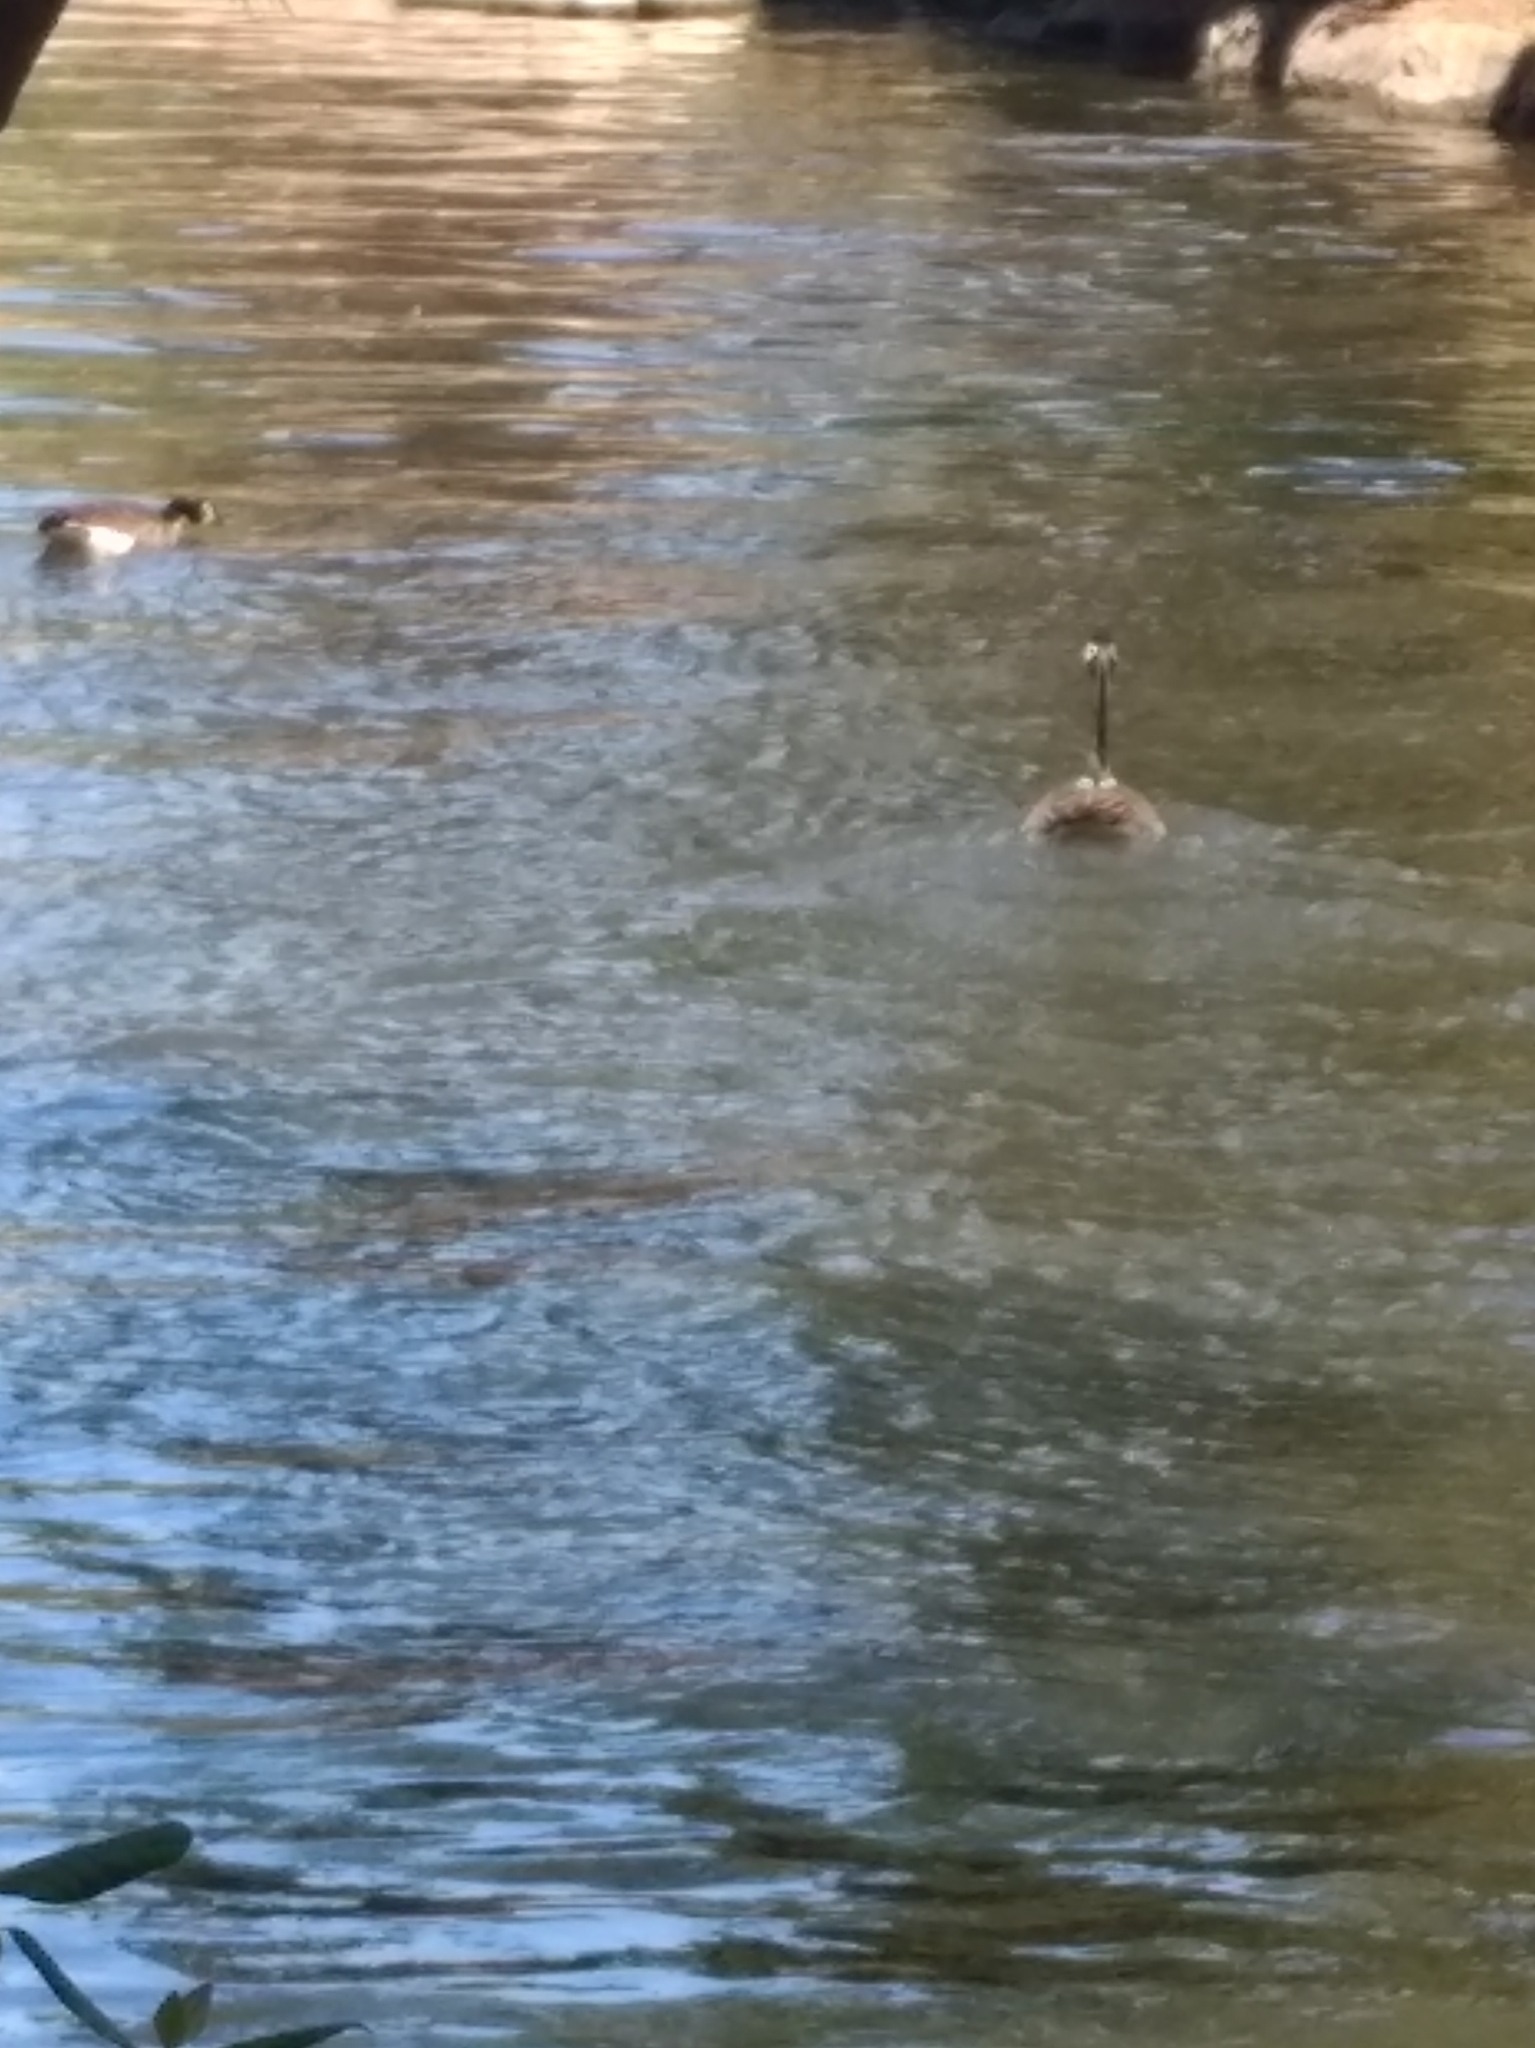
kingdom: Animalia
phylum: Chordata
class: Aves
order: Anseriformes
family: Anatidae
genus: Branta
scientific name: Branta canadensis
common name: Canada goose
